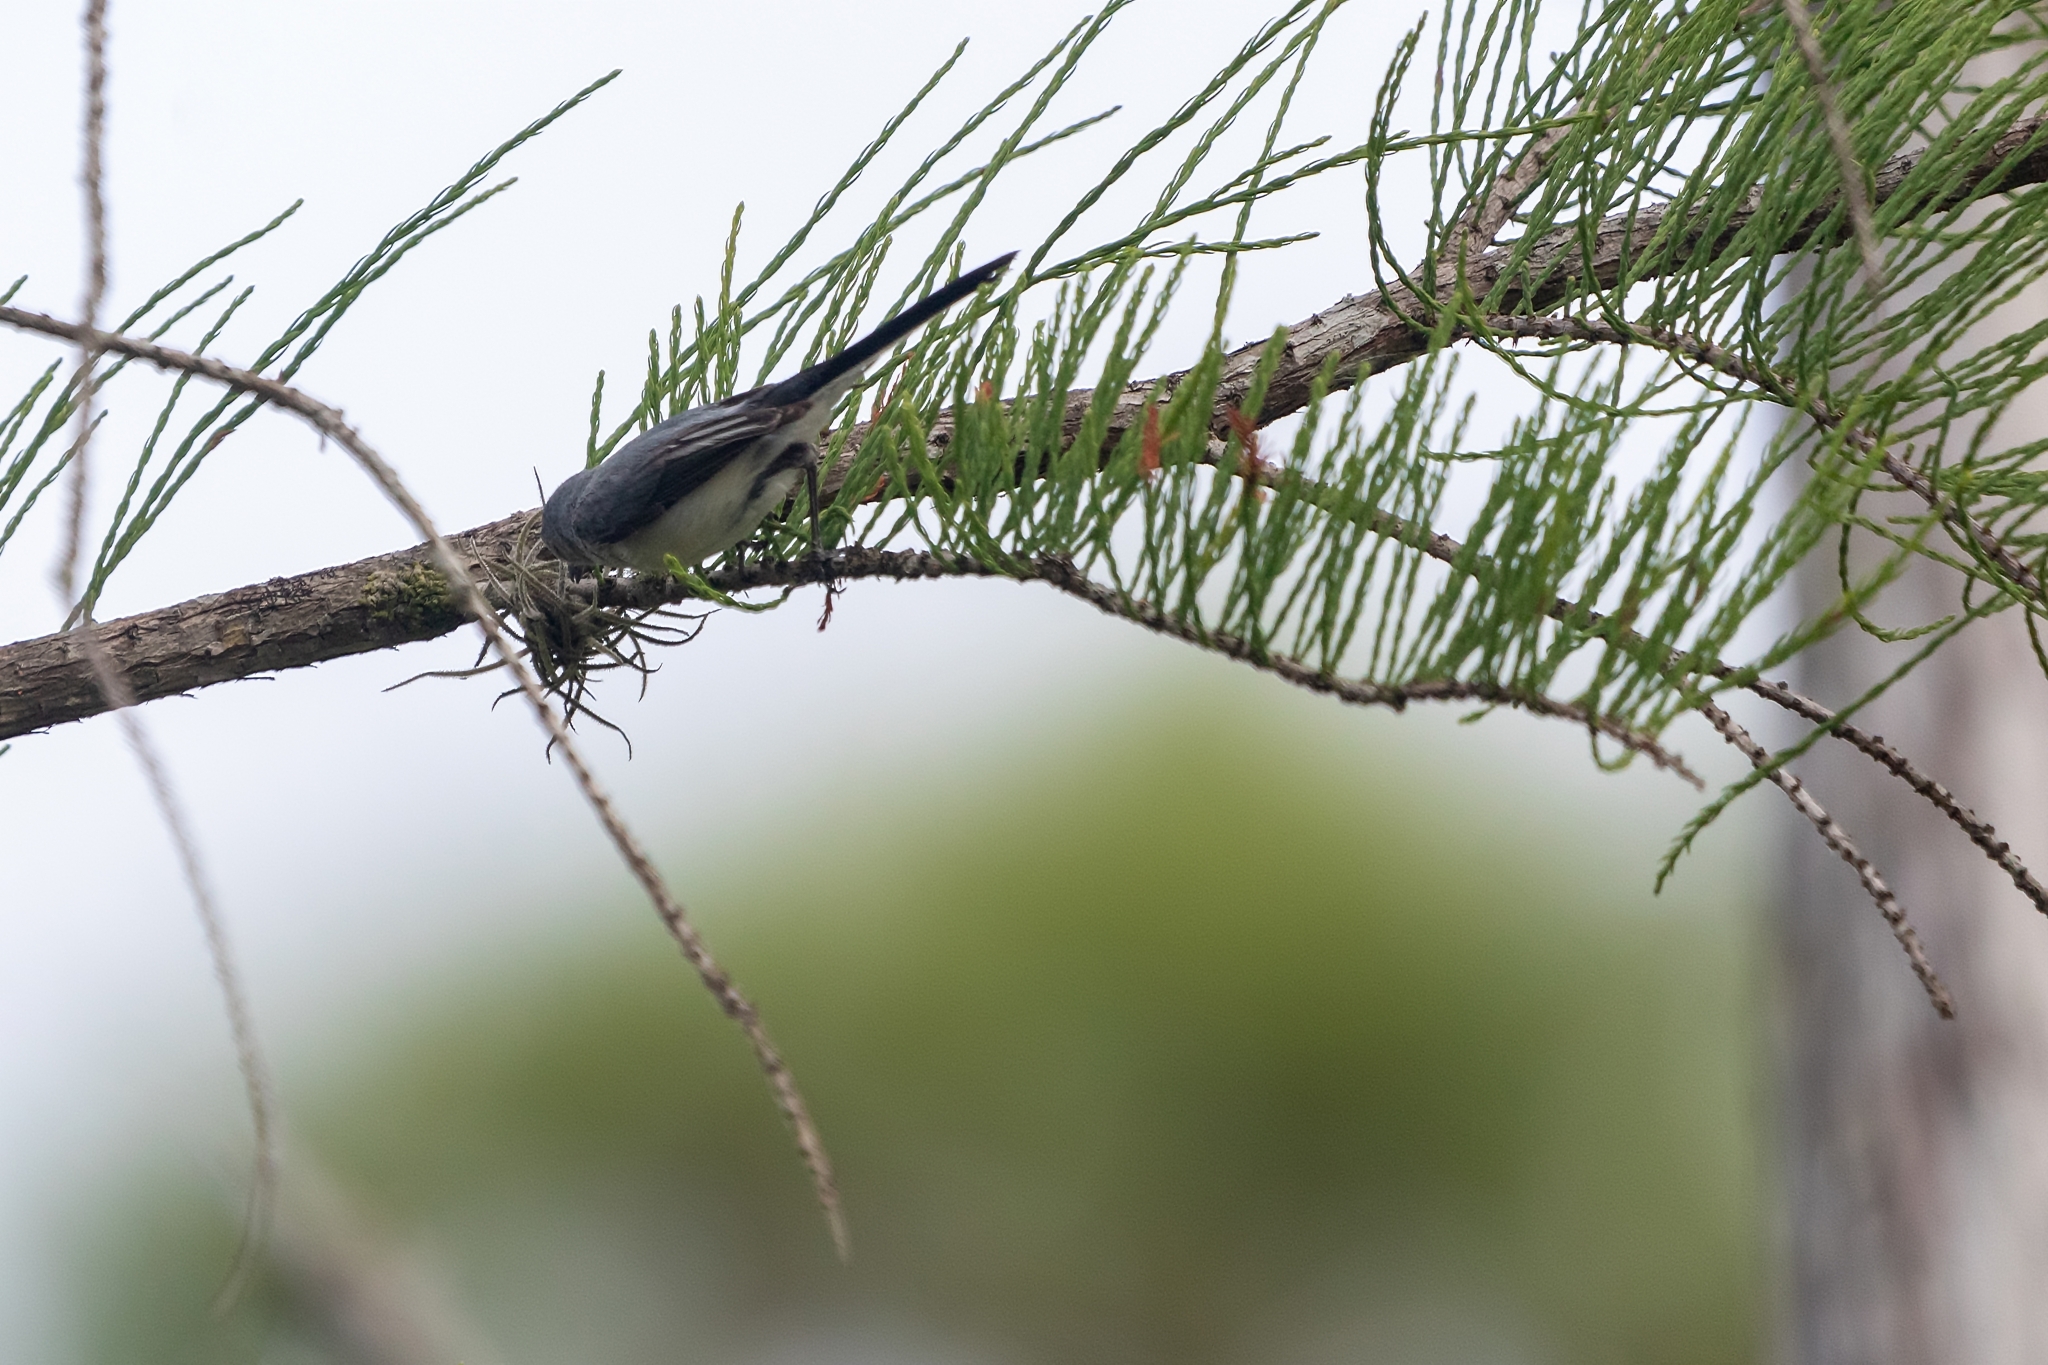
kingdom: Animalia
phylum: Chordata
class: Aves
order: Passeriformes
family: Polioptilidae
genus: Polioptila
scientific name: Polioptila caerulea
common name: Blue-gray gnatcatcher
